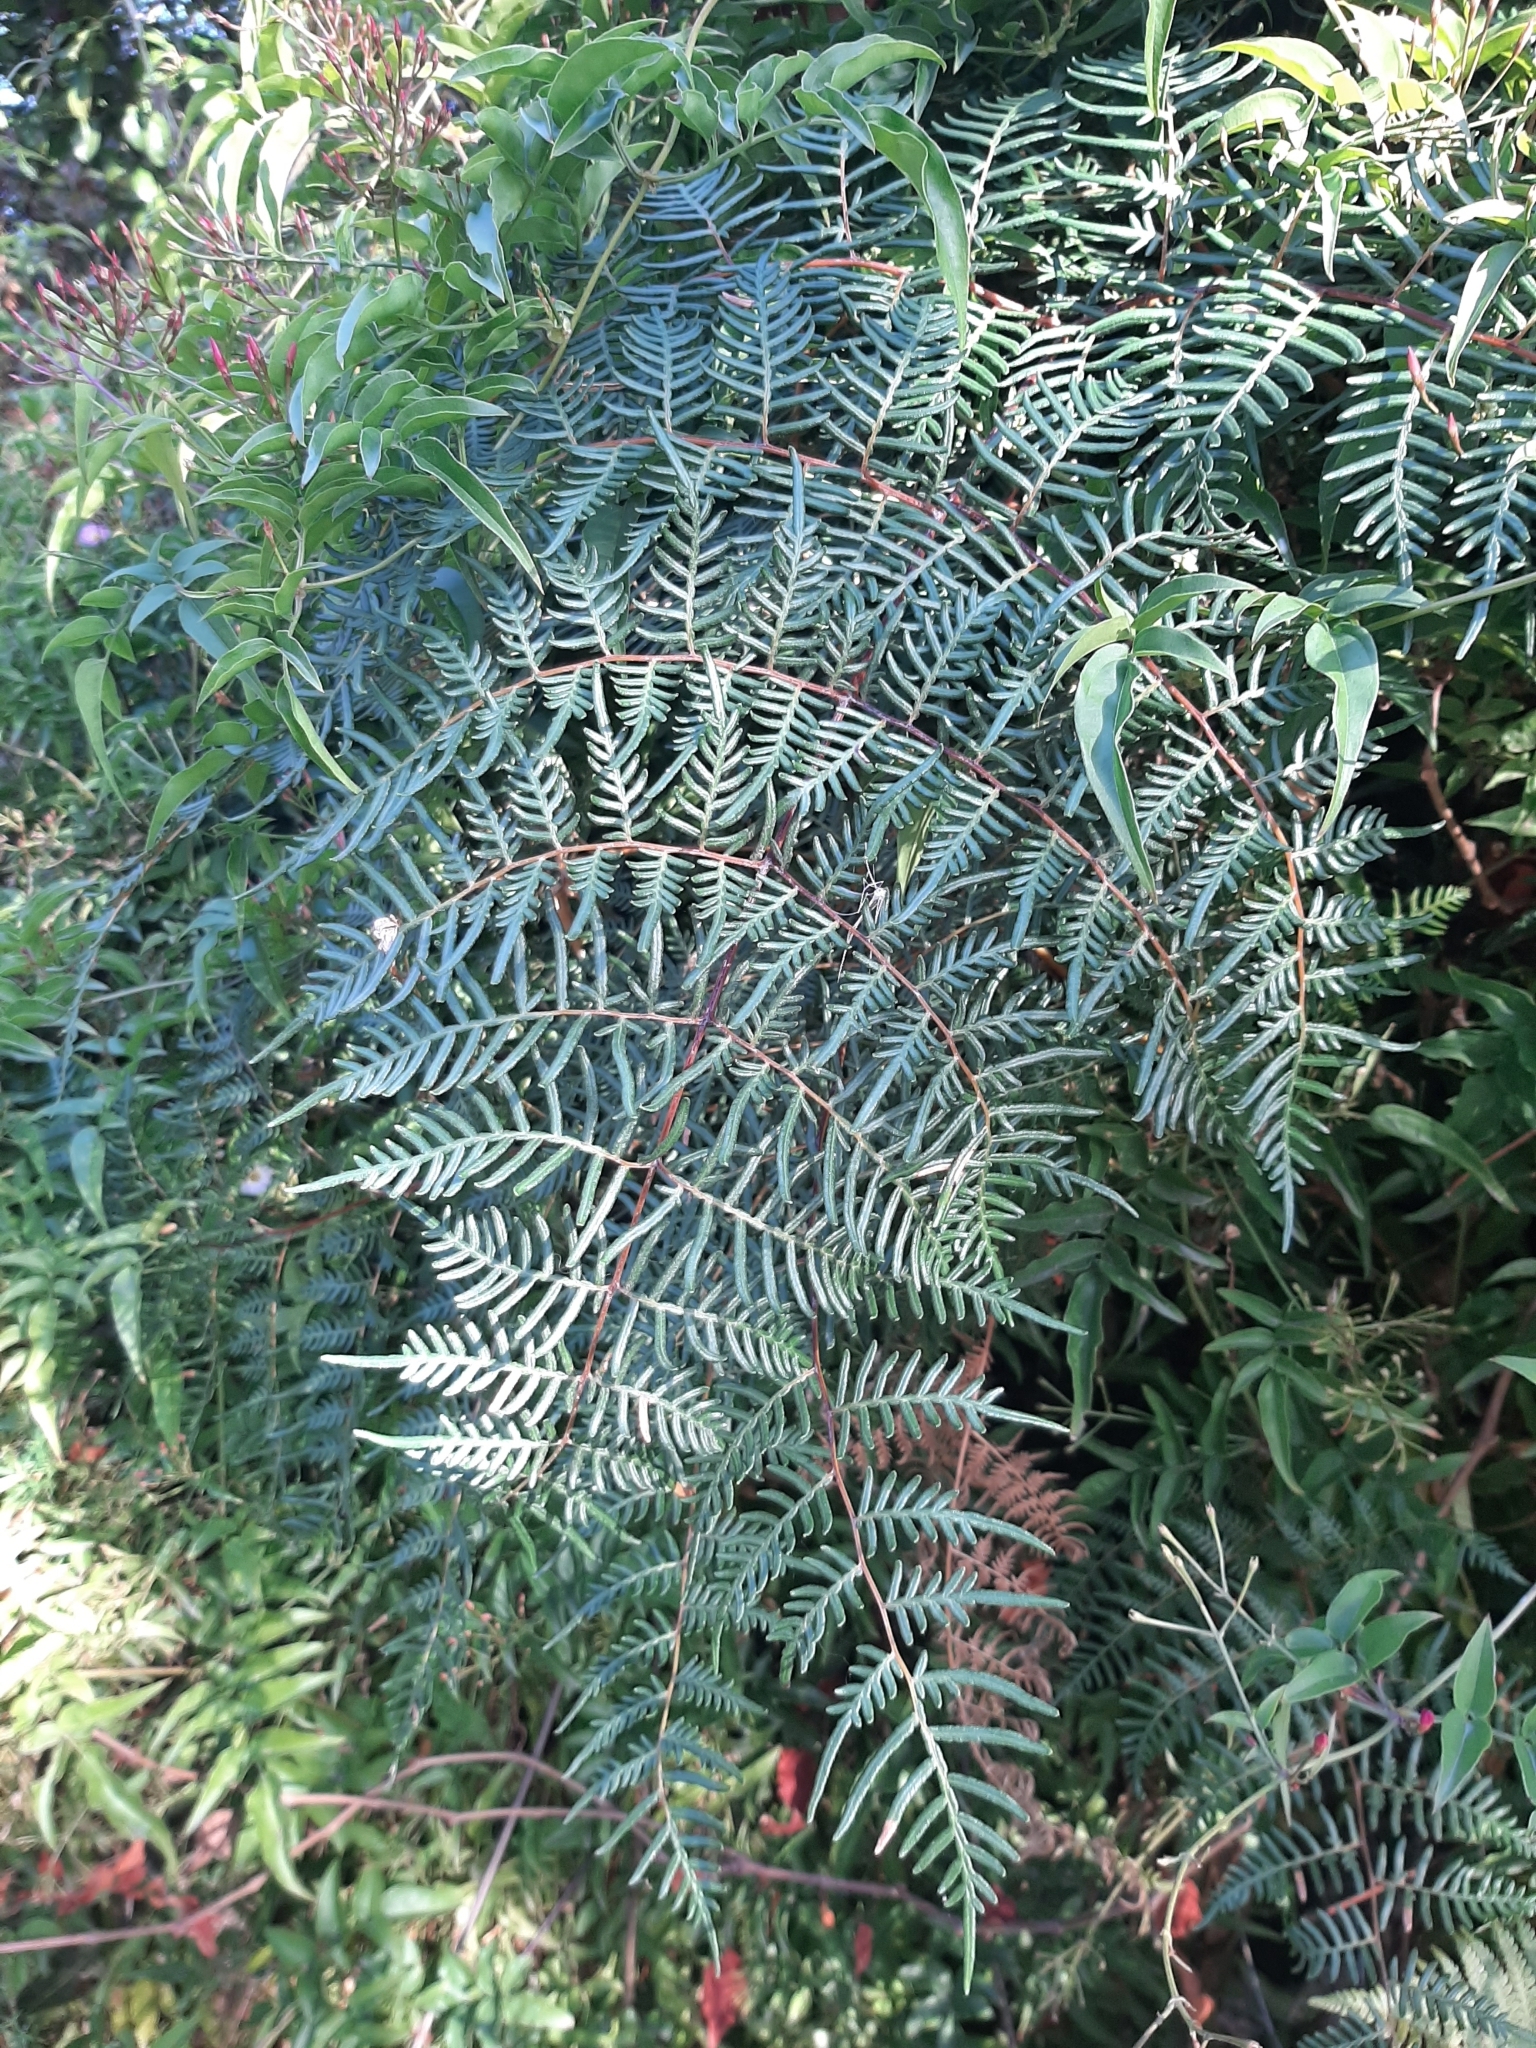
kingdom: Plantae
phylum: Tracheophyta
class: Polypodiopsida
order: Polypodiales
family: Dennstaedtiaceae
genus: Pteridium
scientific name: Pteridium esculentum
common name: Bracken fern
